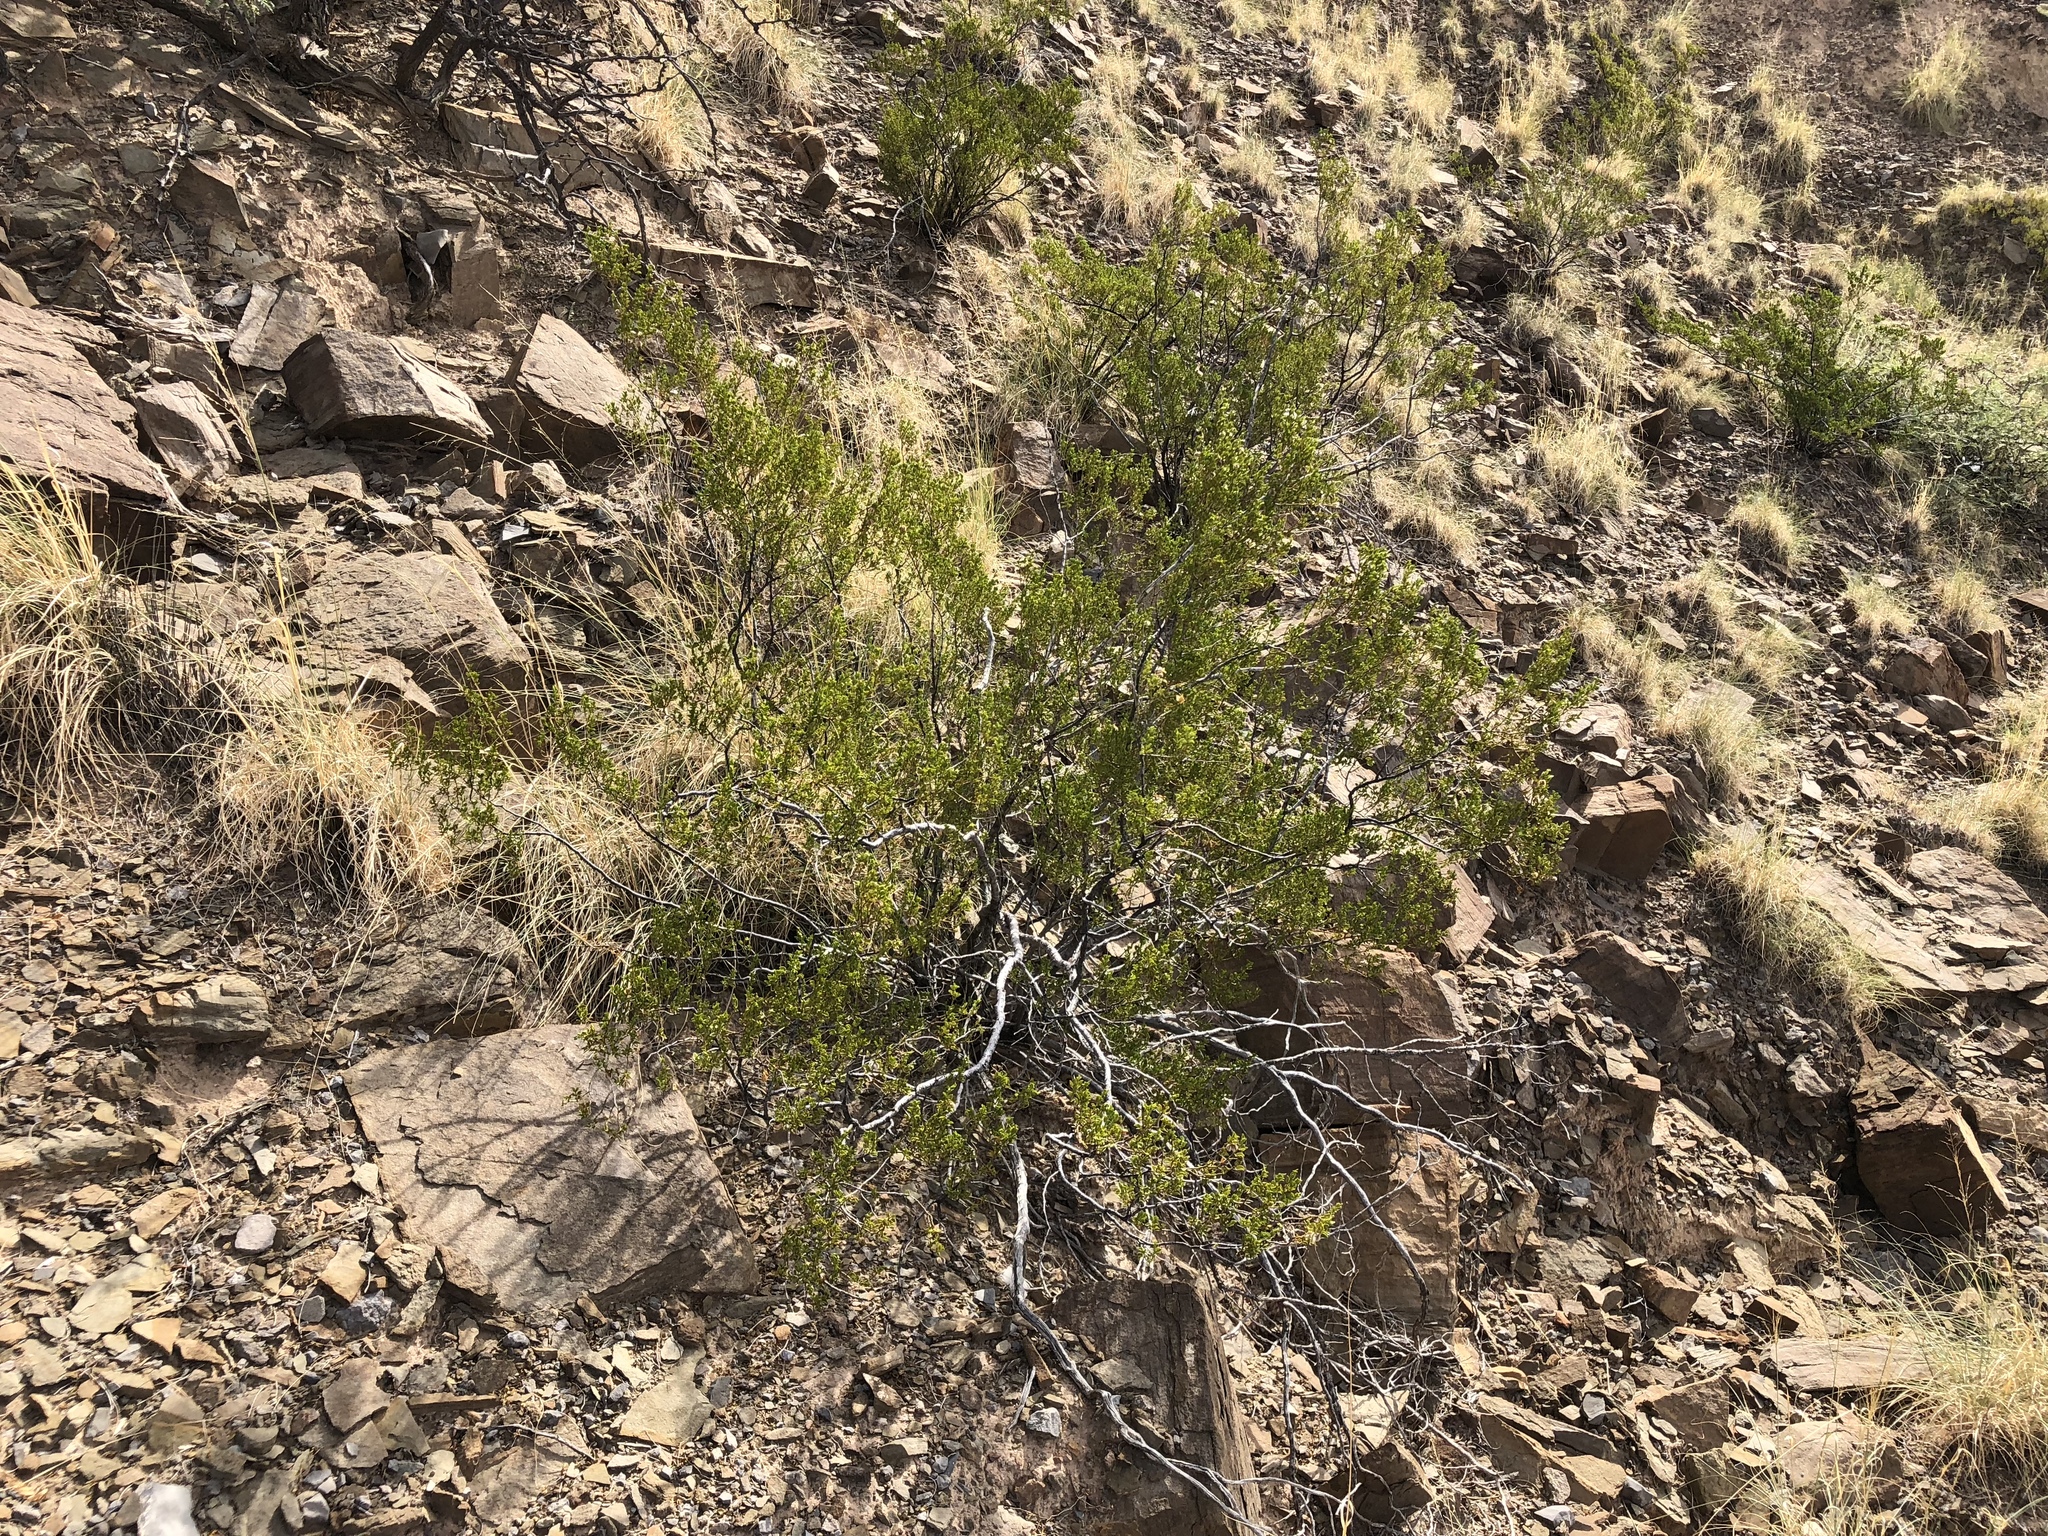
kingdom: Plantae
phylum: Tracheophyta
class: Magnoliopsida
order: Zygophyllales
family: Zygophyllaceae
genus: Larrea
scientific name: Larrea tridentata
